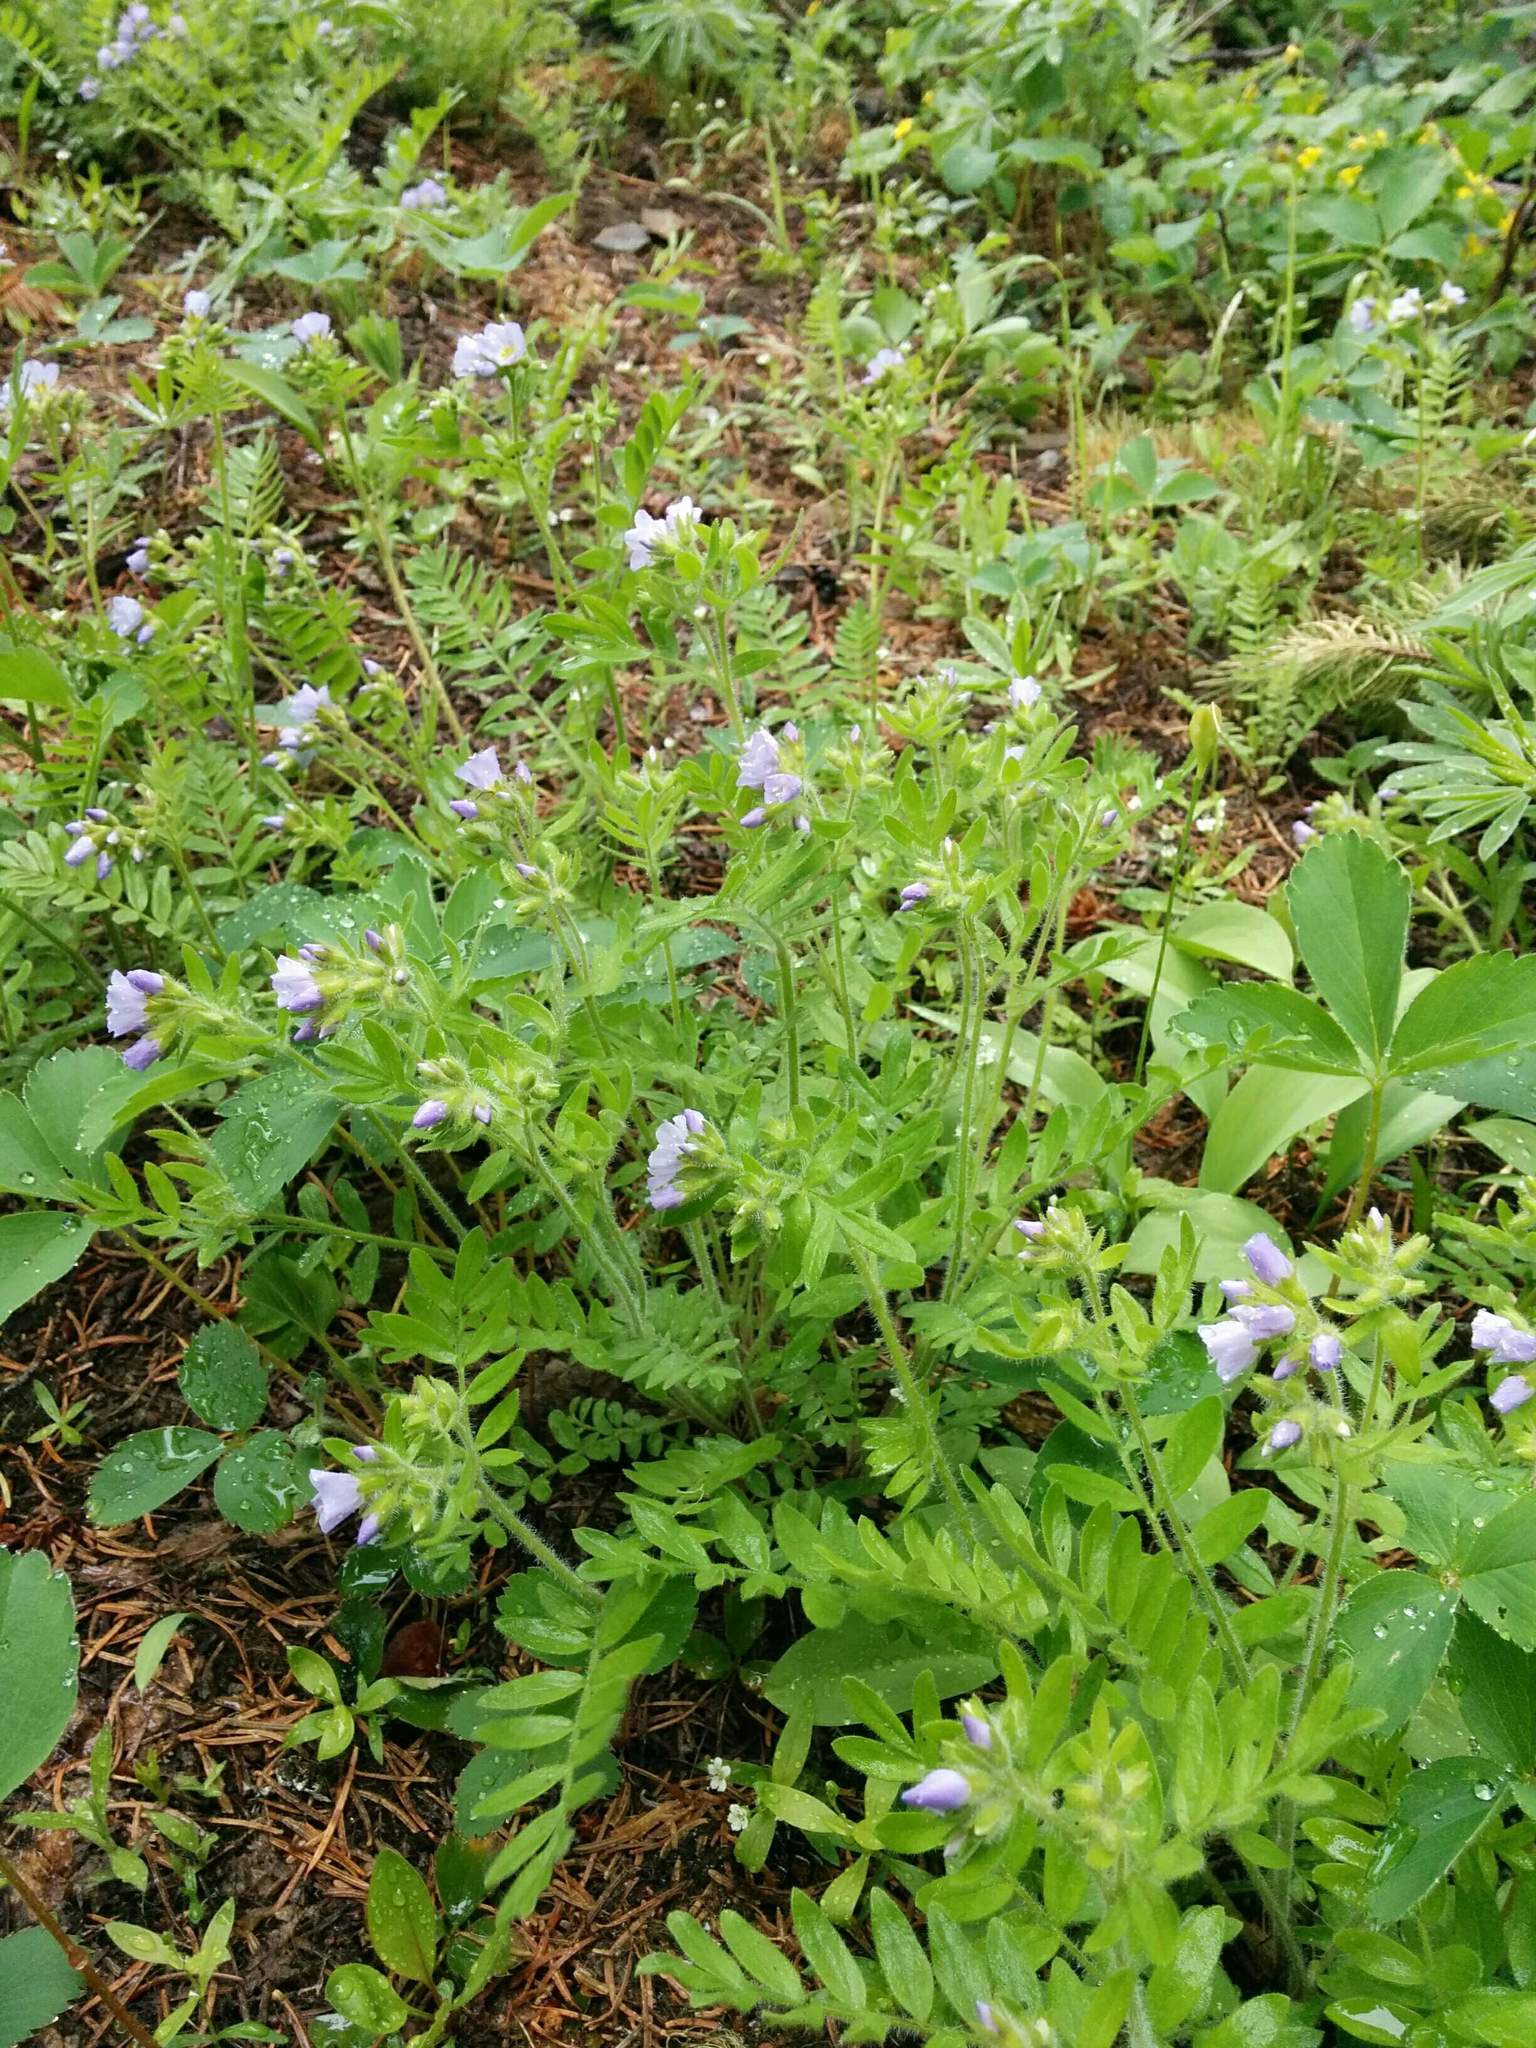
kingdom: Plantae
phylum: Tracheophyta
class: Magnoliopsida
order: Ericales
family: Polemoniaceae
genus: Polemonium
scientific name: Polemonium californicum
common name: California jacob's ladder
